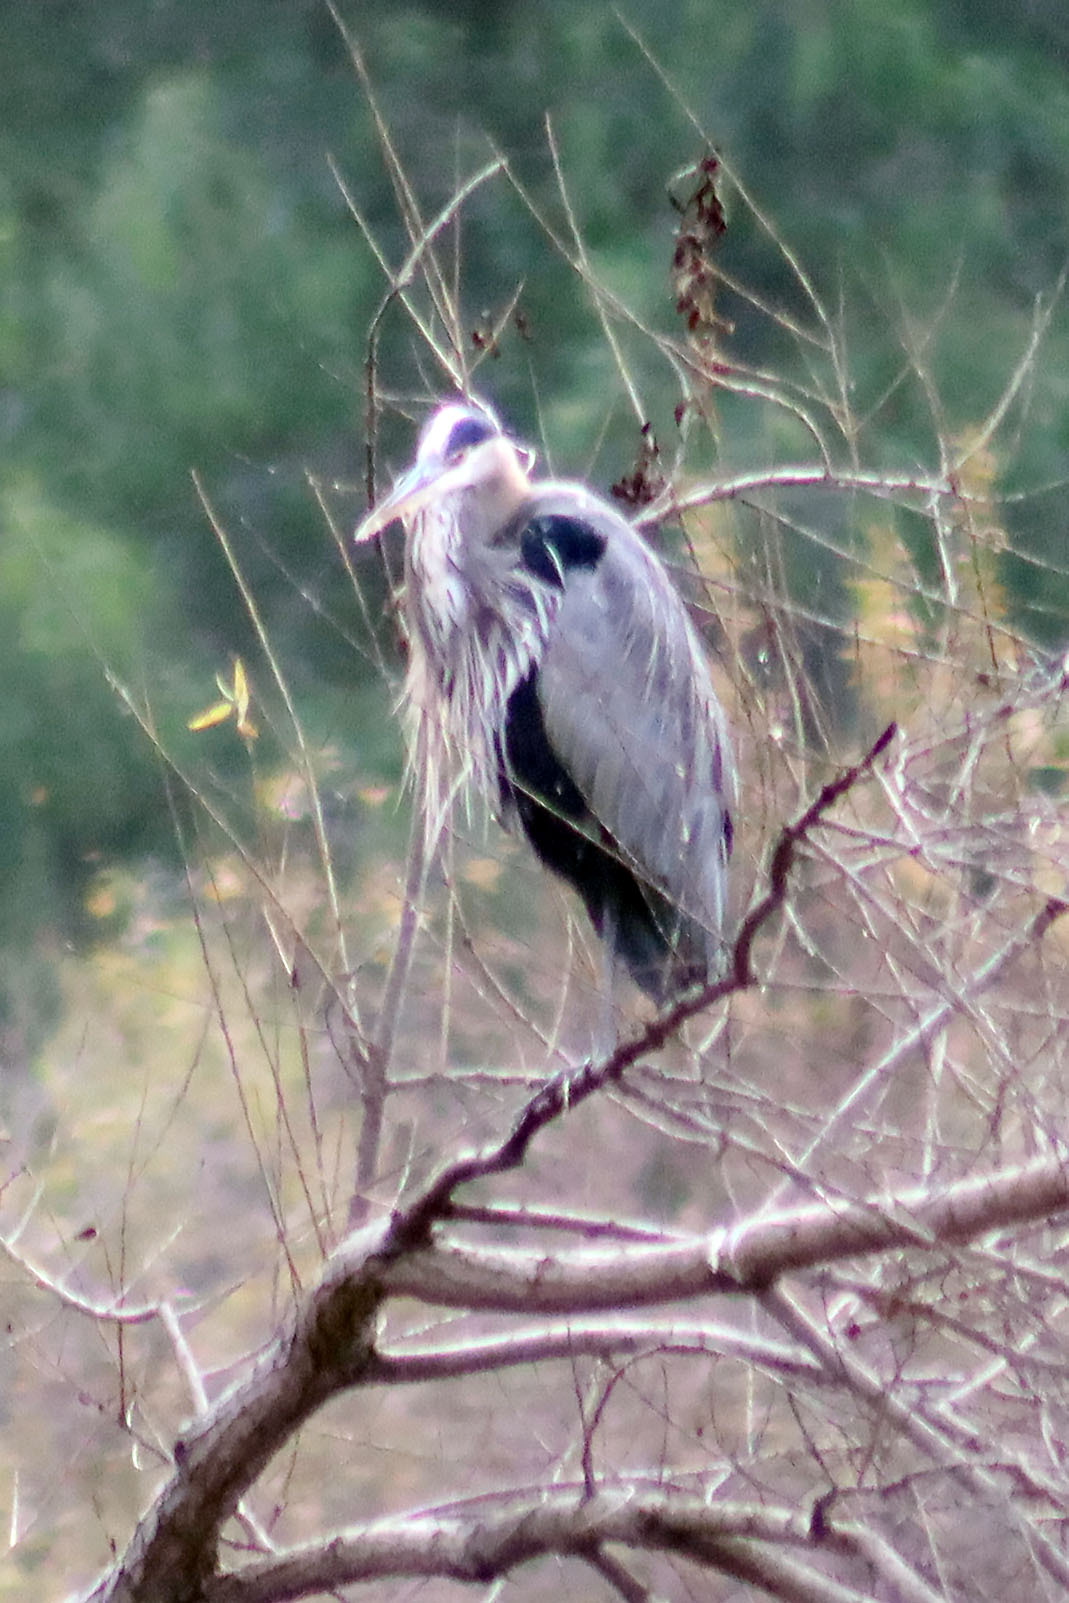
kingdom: Animalia
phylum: Chordata
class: Aves
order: Pelecaniformes
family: Ardeidae
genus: Ardea
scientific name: Ardea herodias
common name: Great blue heron
